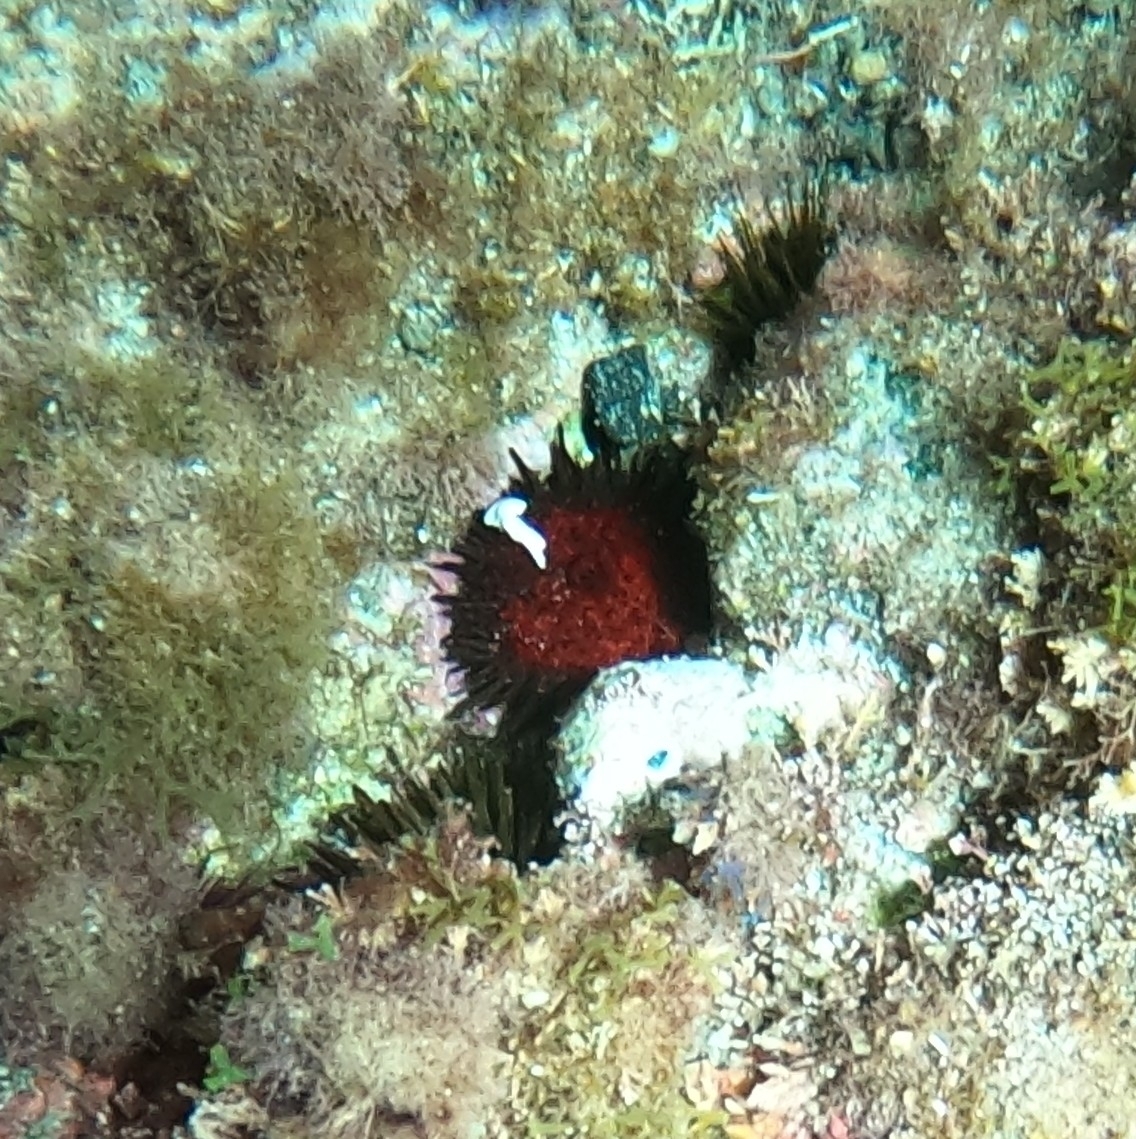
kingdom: Animalia
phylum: Echinodermata
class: Echinoidea
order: Camarodonta
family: Parechinidae
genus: Paracentrotus
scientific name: Paracentrotus lividus
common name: Purple sea urchin
